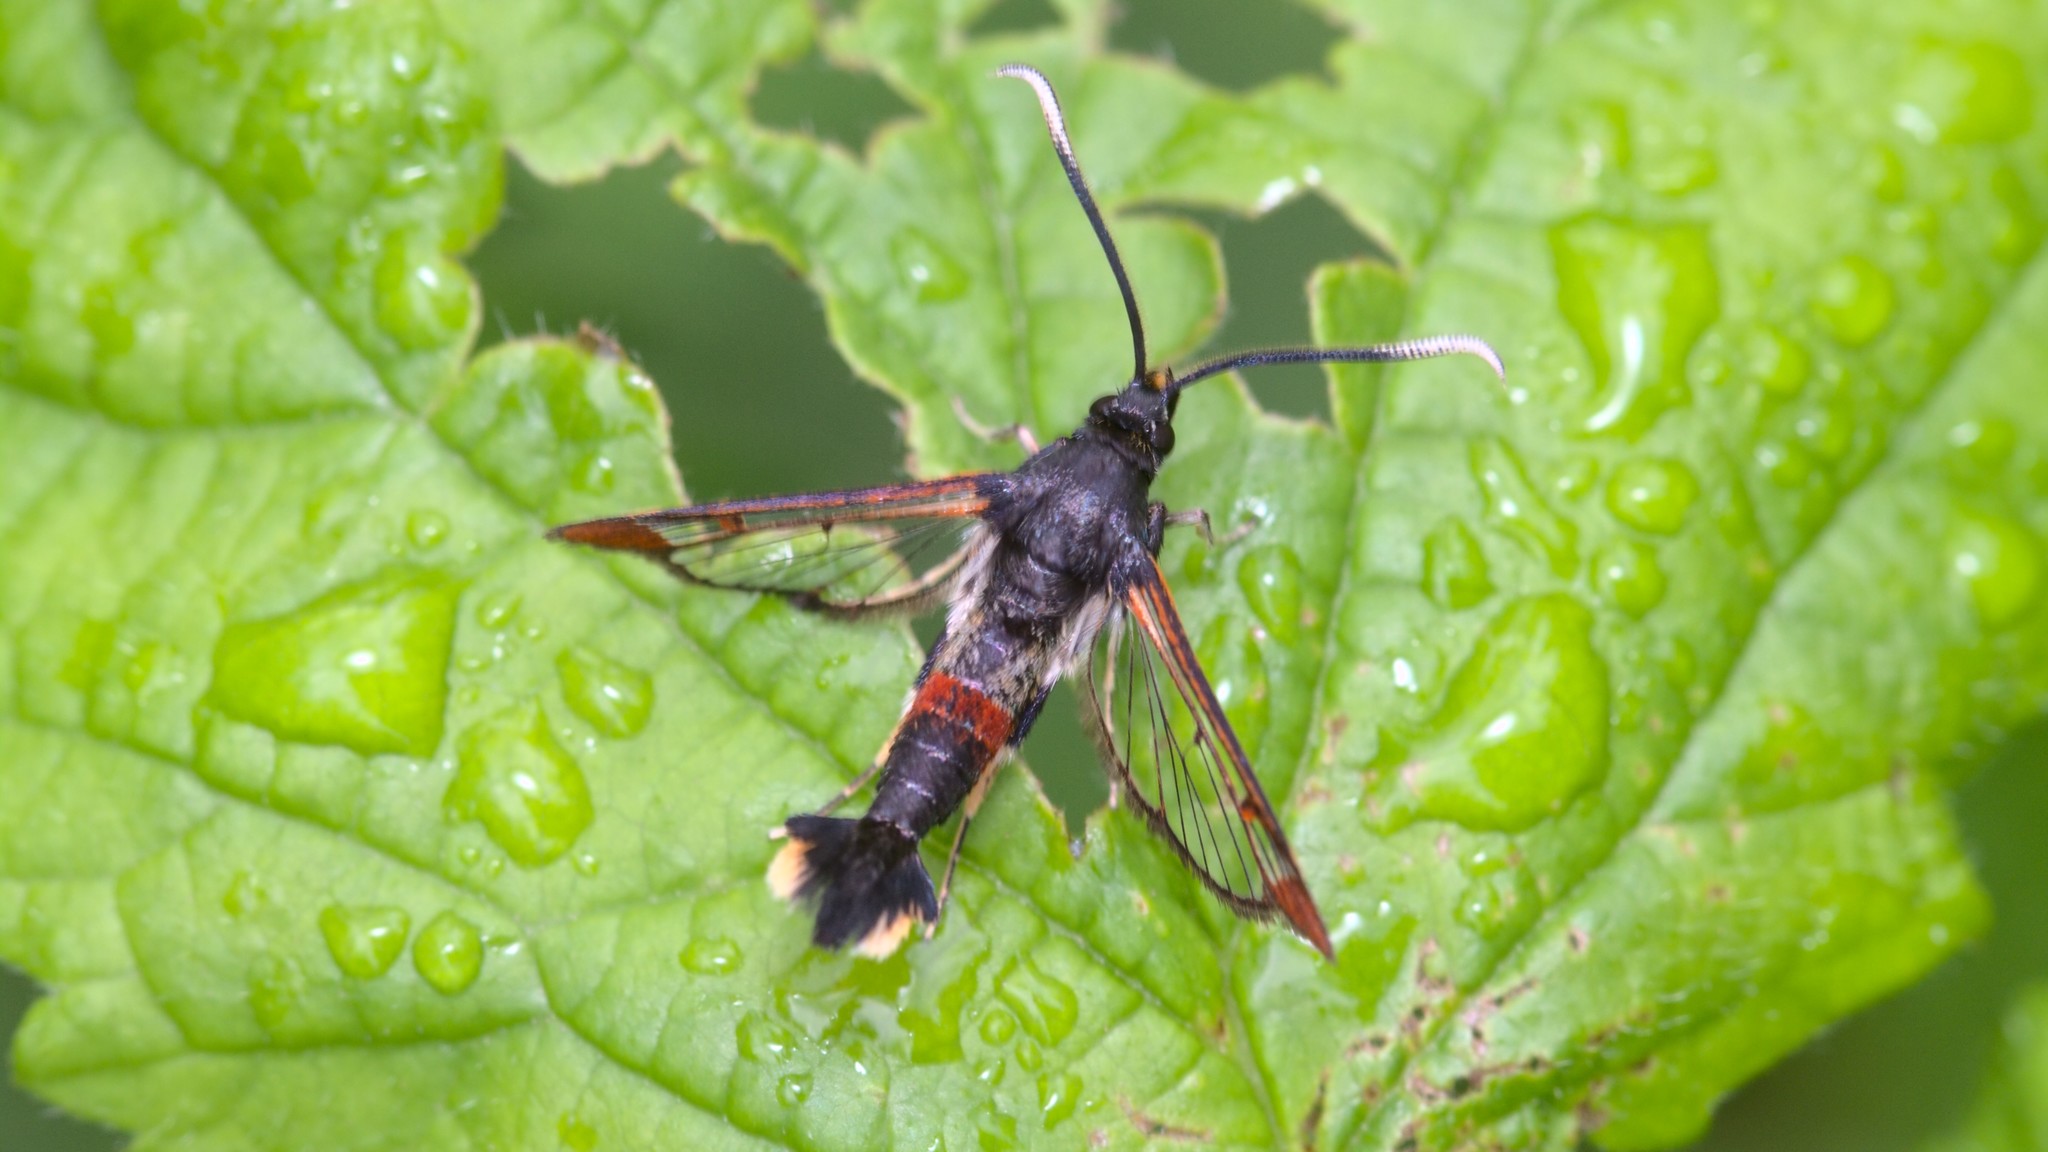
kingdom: Animalia
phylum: Arthropoda
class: Insecta
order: Lepidoptera
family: Sesiidae
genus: Synanthedon
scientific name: Synanthedon formicaeformis
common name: Red-tipped clearwing
